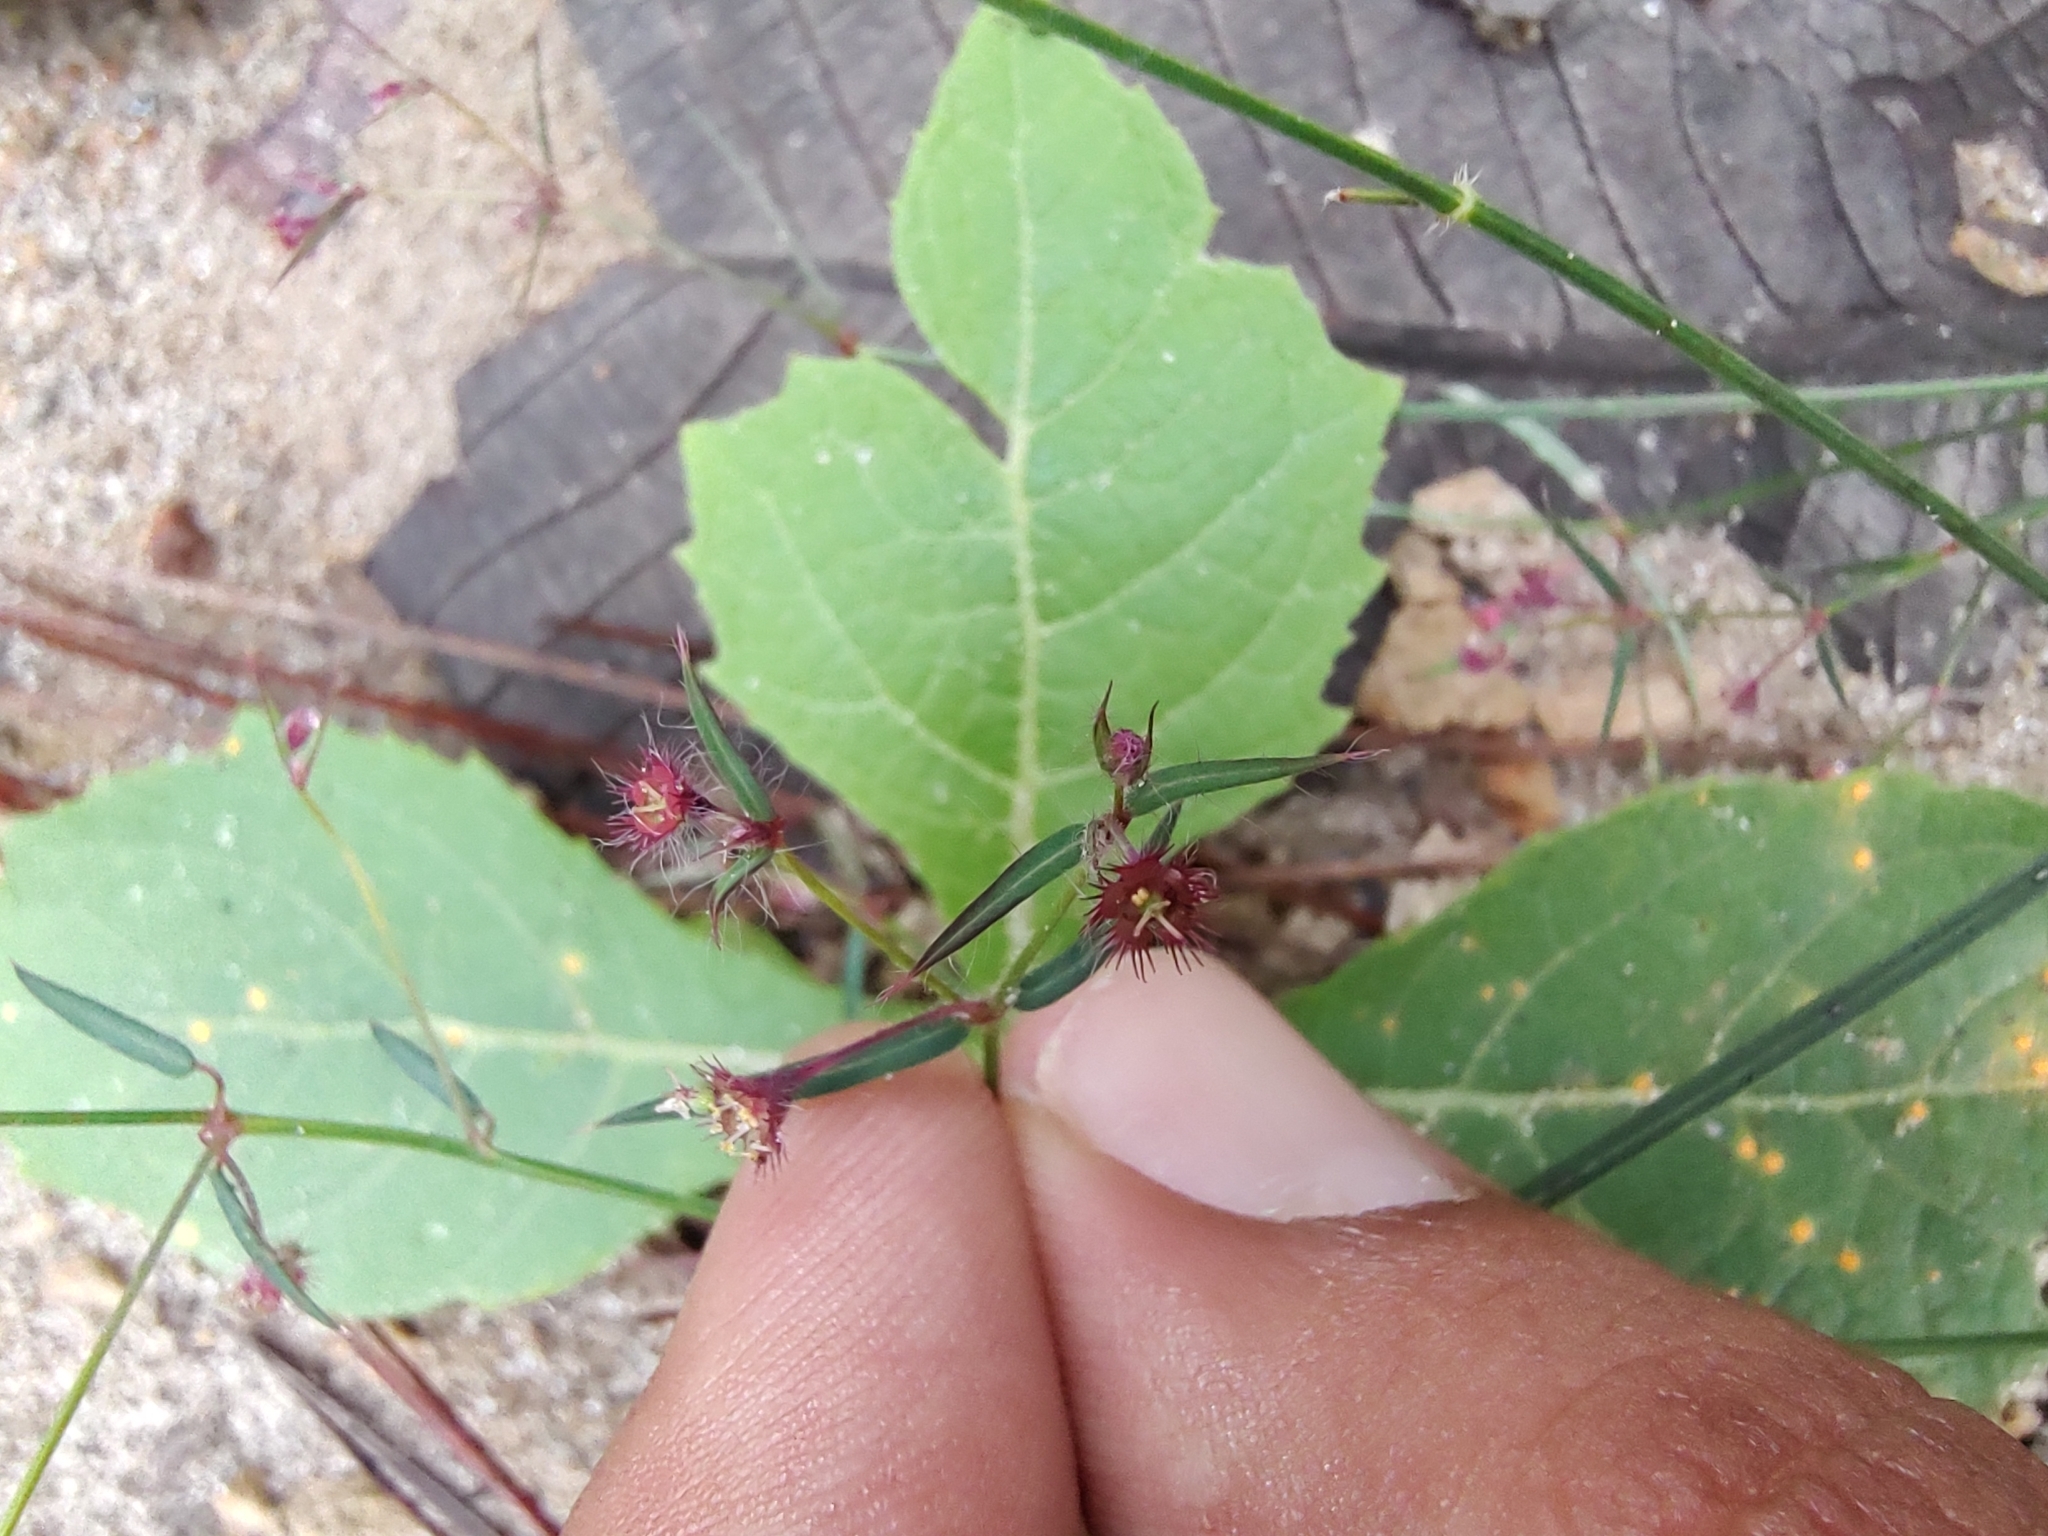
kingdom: Plantae
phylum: Tracheophyta
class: Magnoliopsida
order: Malpighiales
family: Euphorbiaceae
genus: Euphorbia
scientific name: Euphorbia guadalajarana
